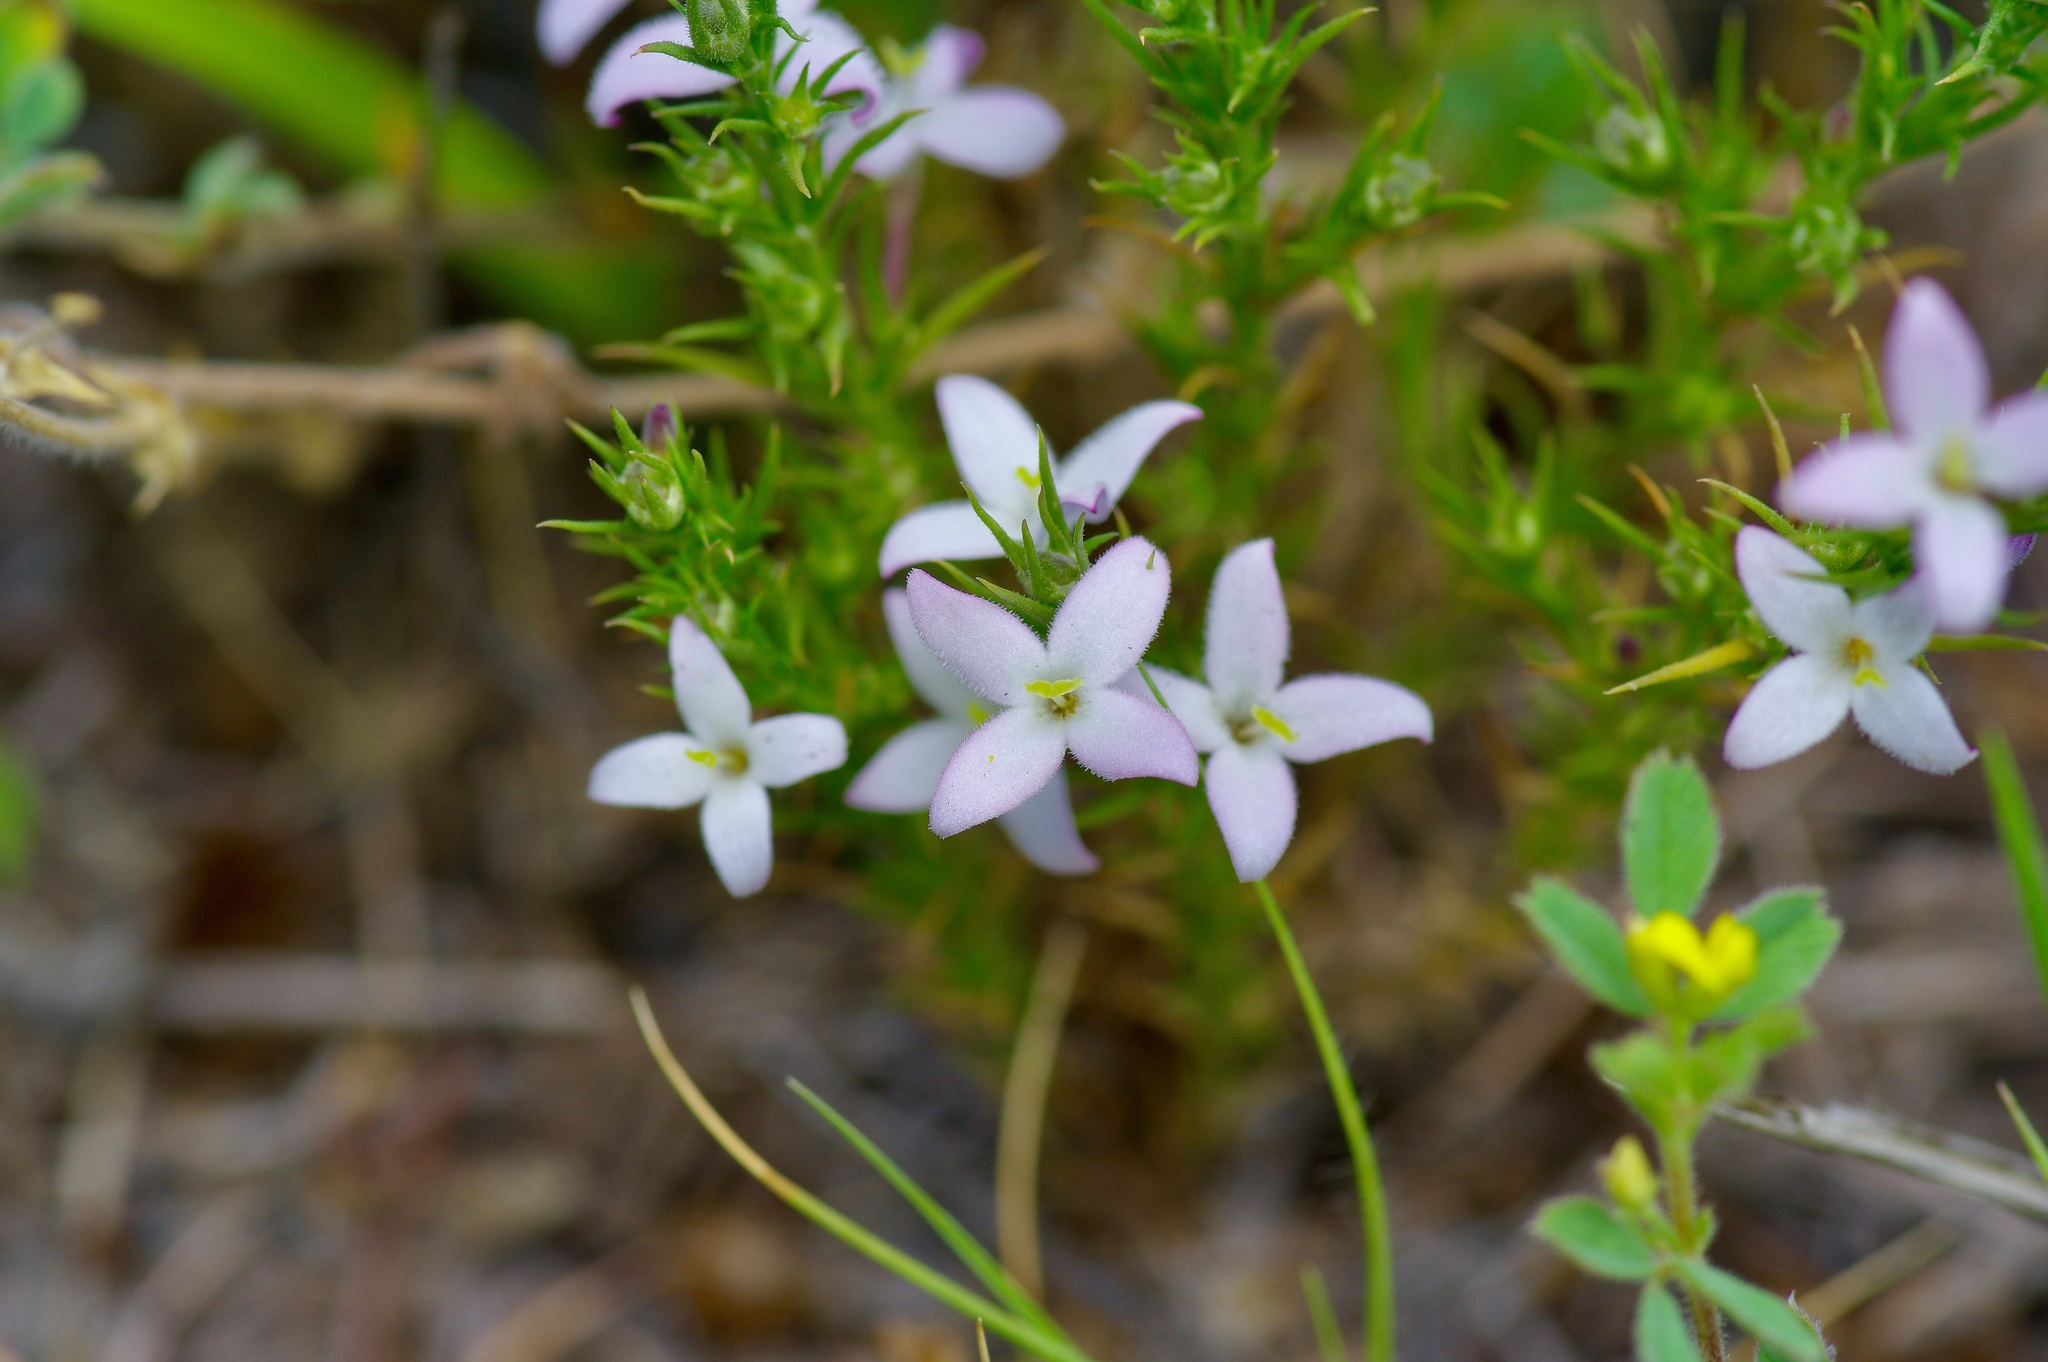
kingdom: Plantae
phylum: Tracheophyta
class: Magnoliopsida
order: Gentianales
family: Rubiaceae
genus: Houstonia
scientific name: Houstonia acerosa
